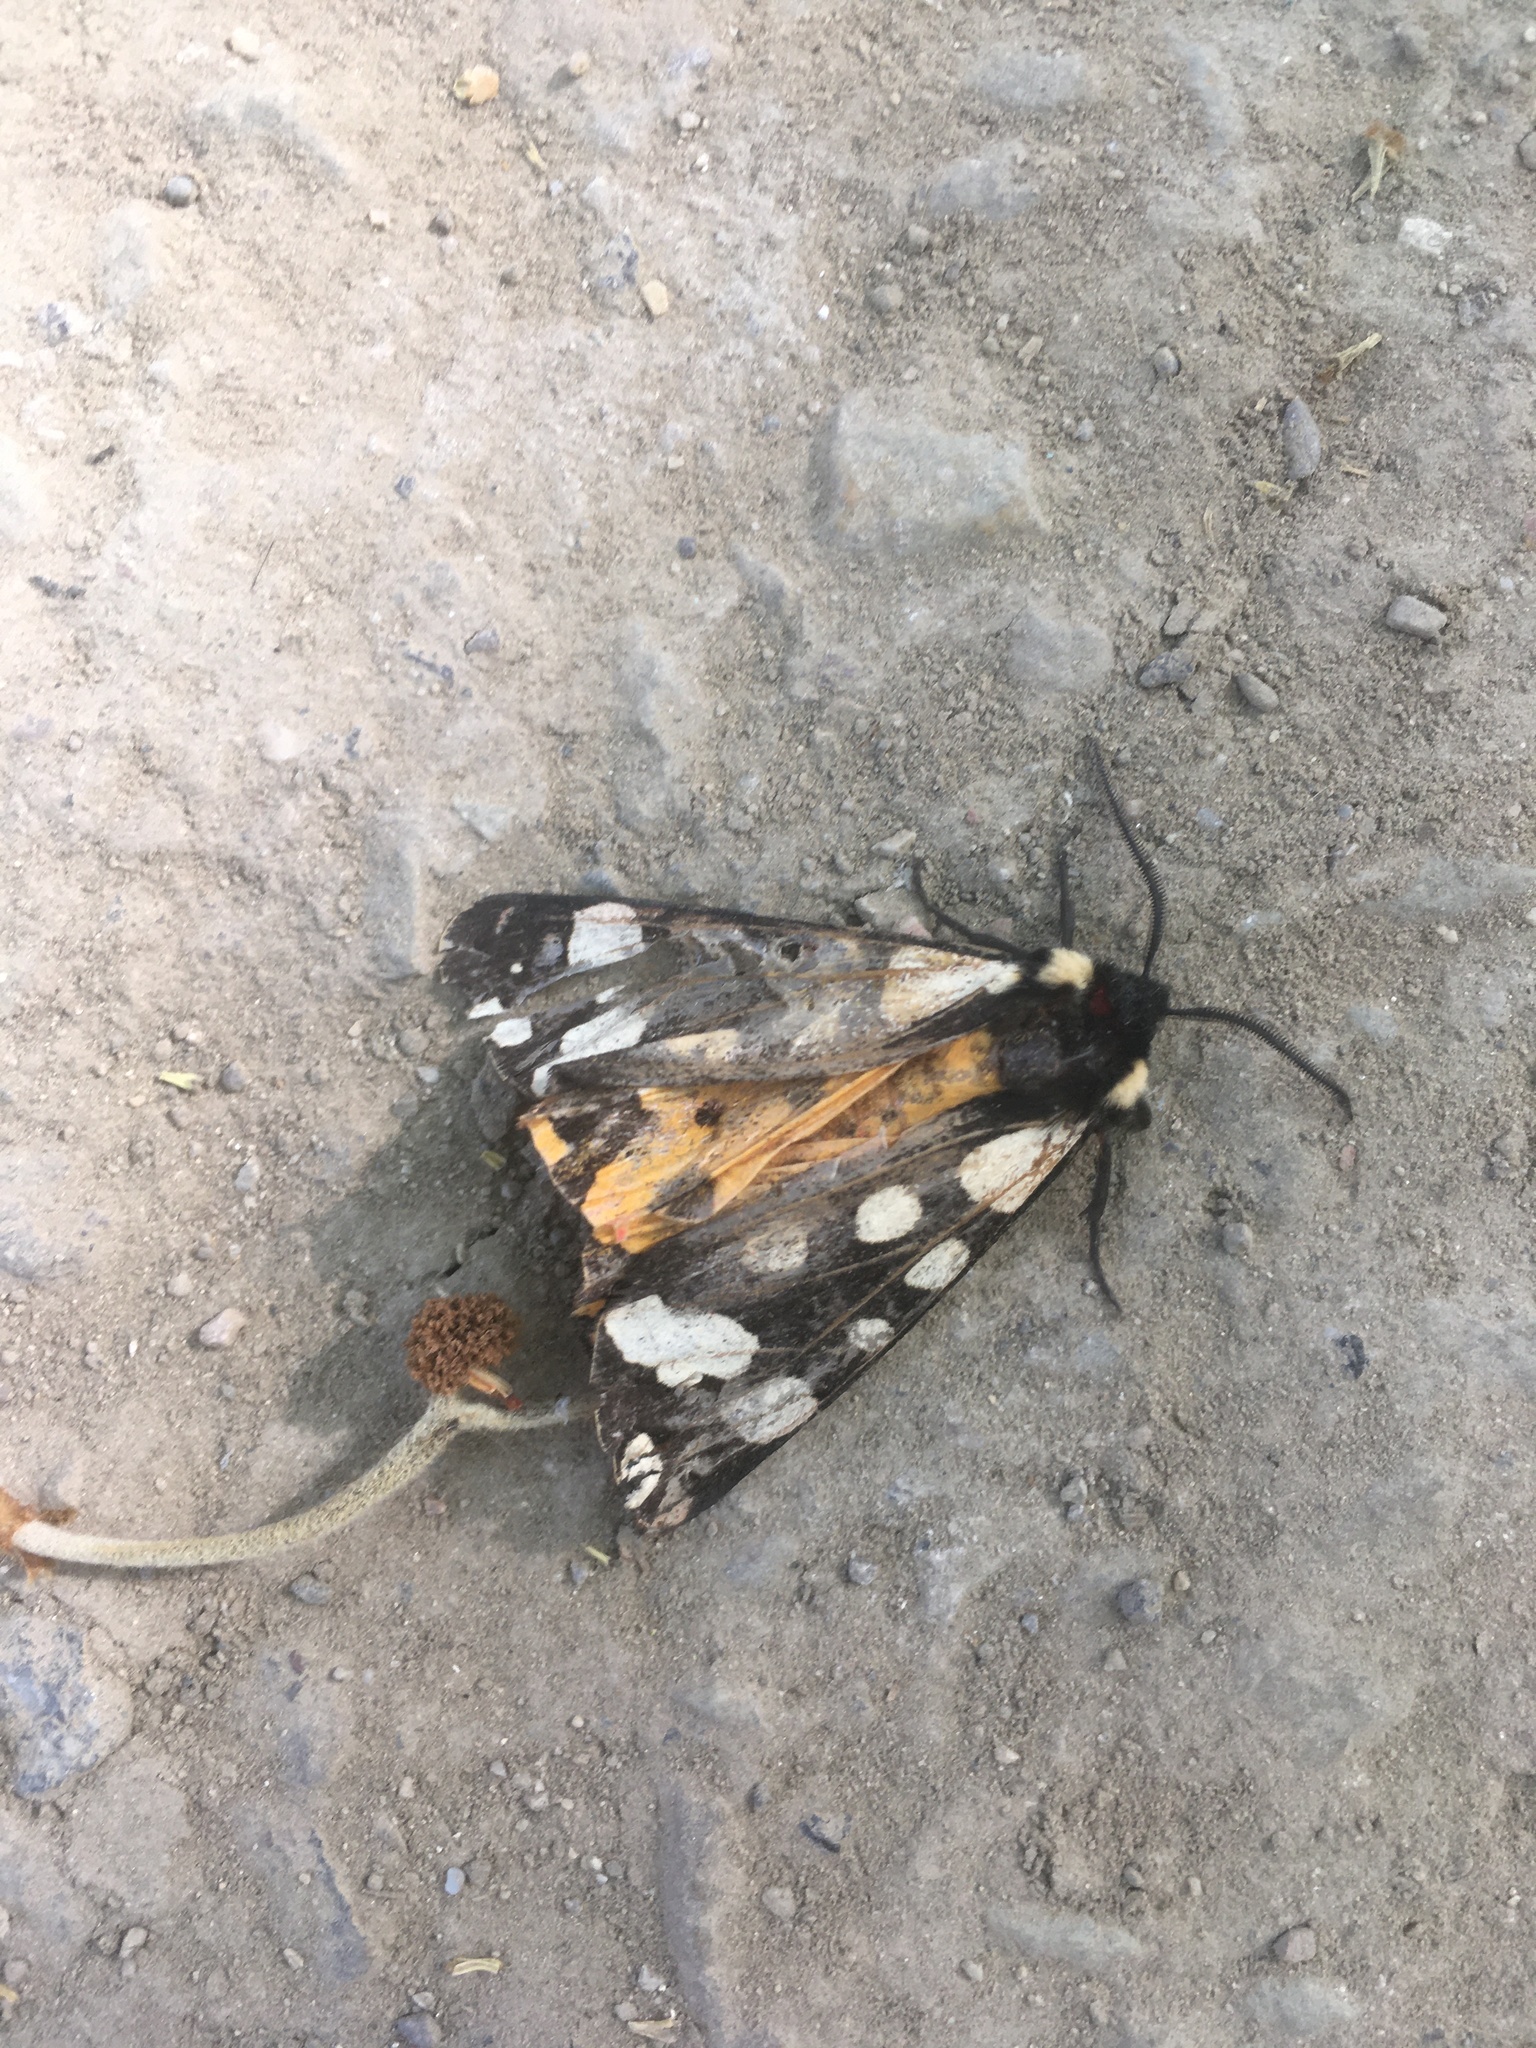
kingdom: Animalia
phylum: Arthropoda
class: Insecta
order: Lepidoptera
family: Erebidae
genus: Epicallia
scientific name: Epicallia villica
